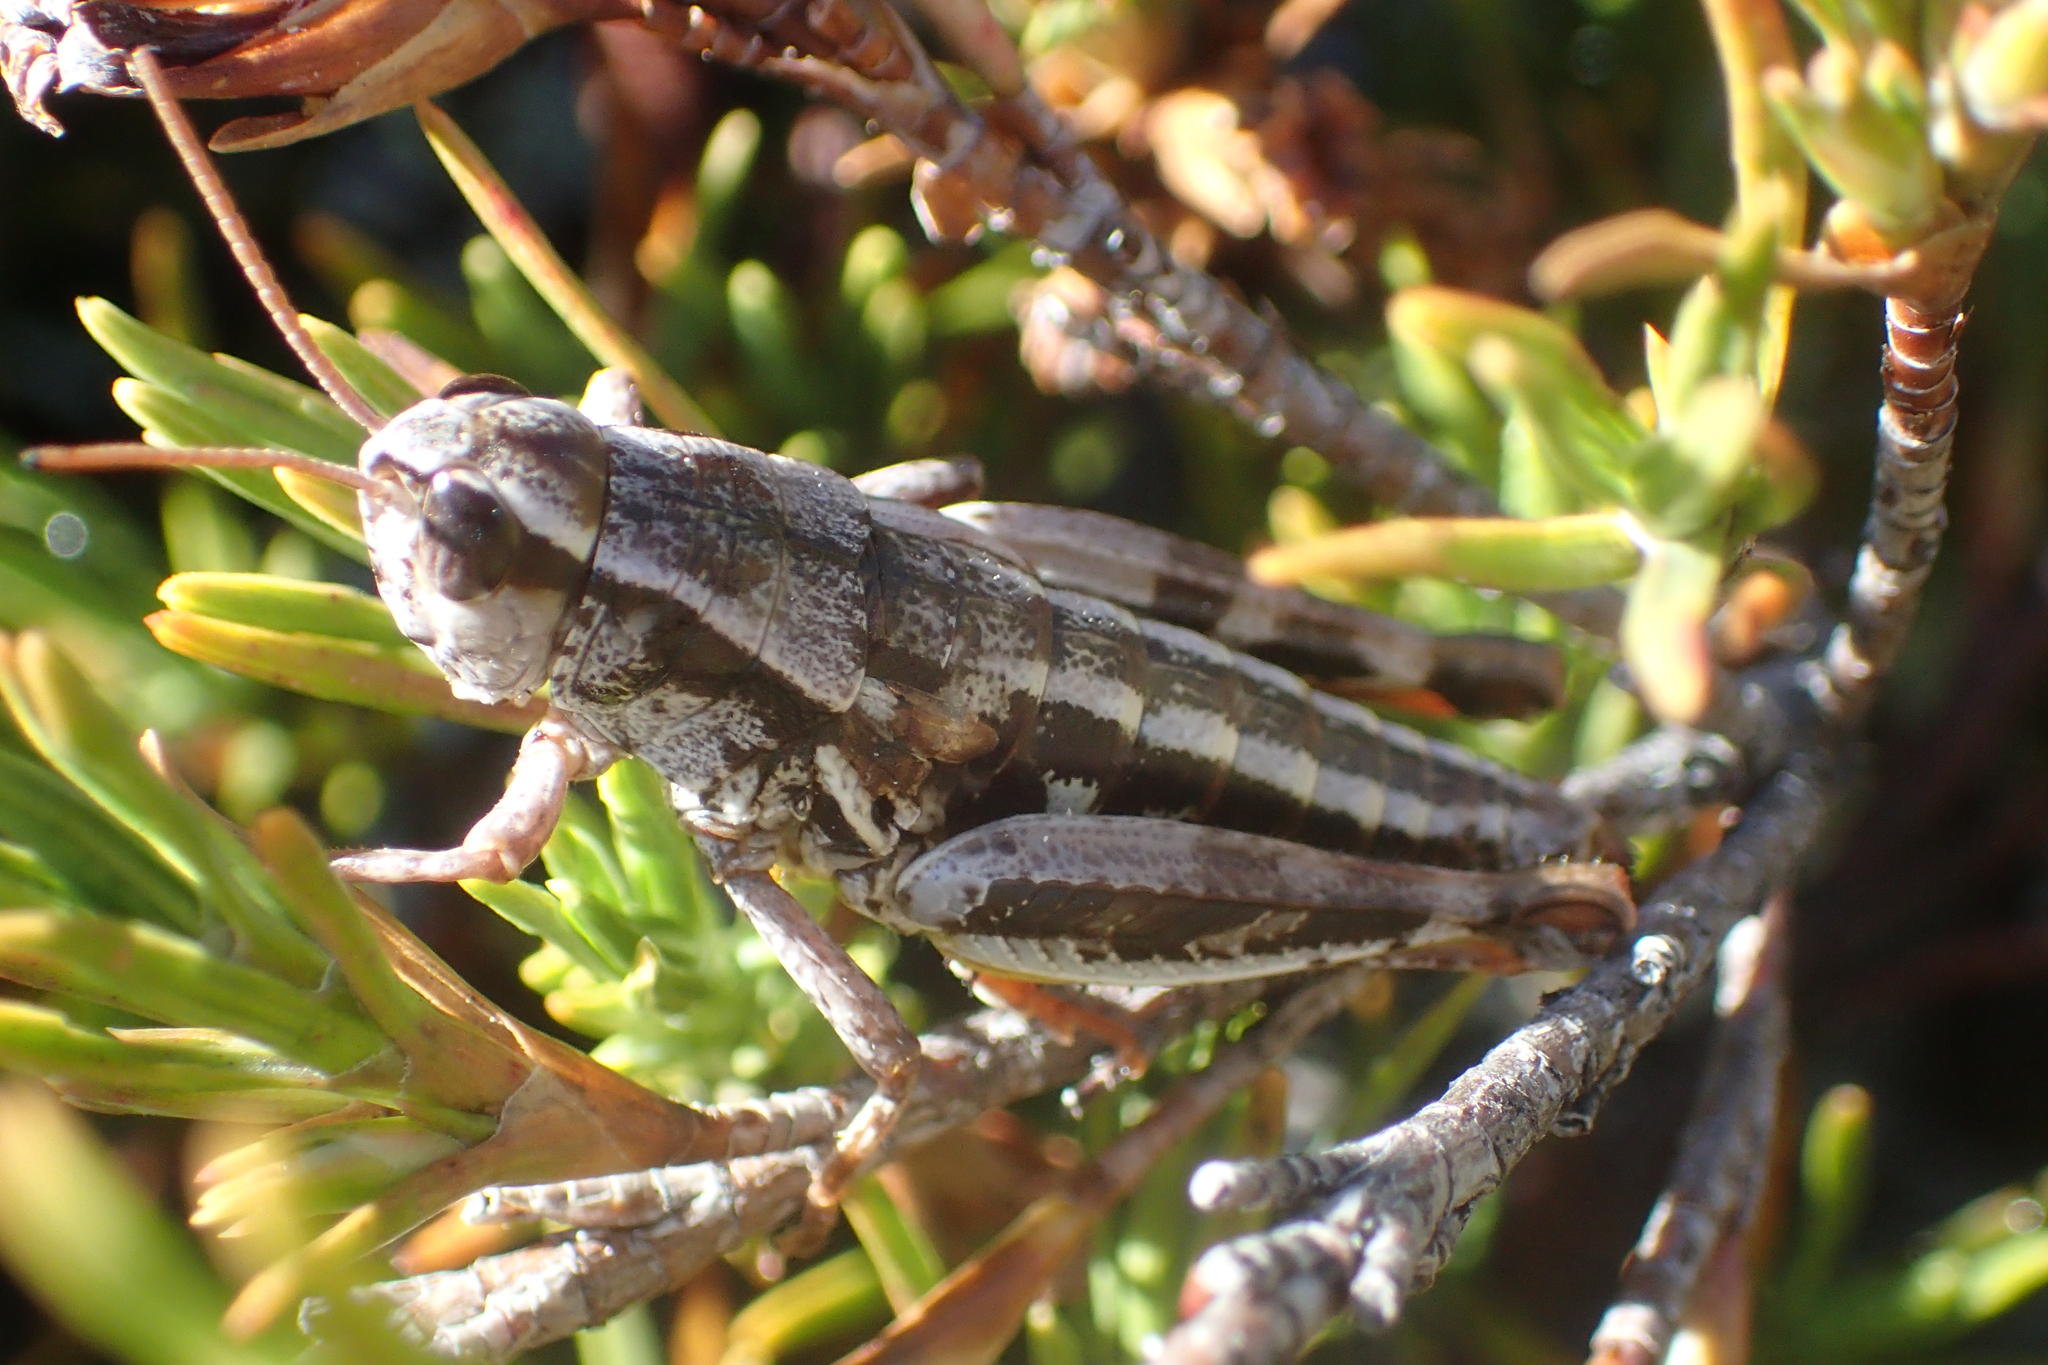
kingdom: Animalia
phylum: Arthropoda
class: Insecta
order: Orthoptera
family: Acrididae
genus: Sigaus
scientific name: Sigaus
